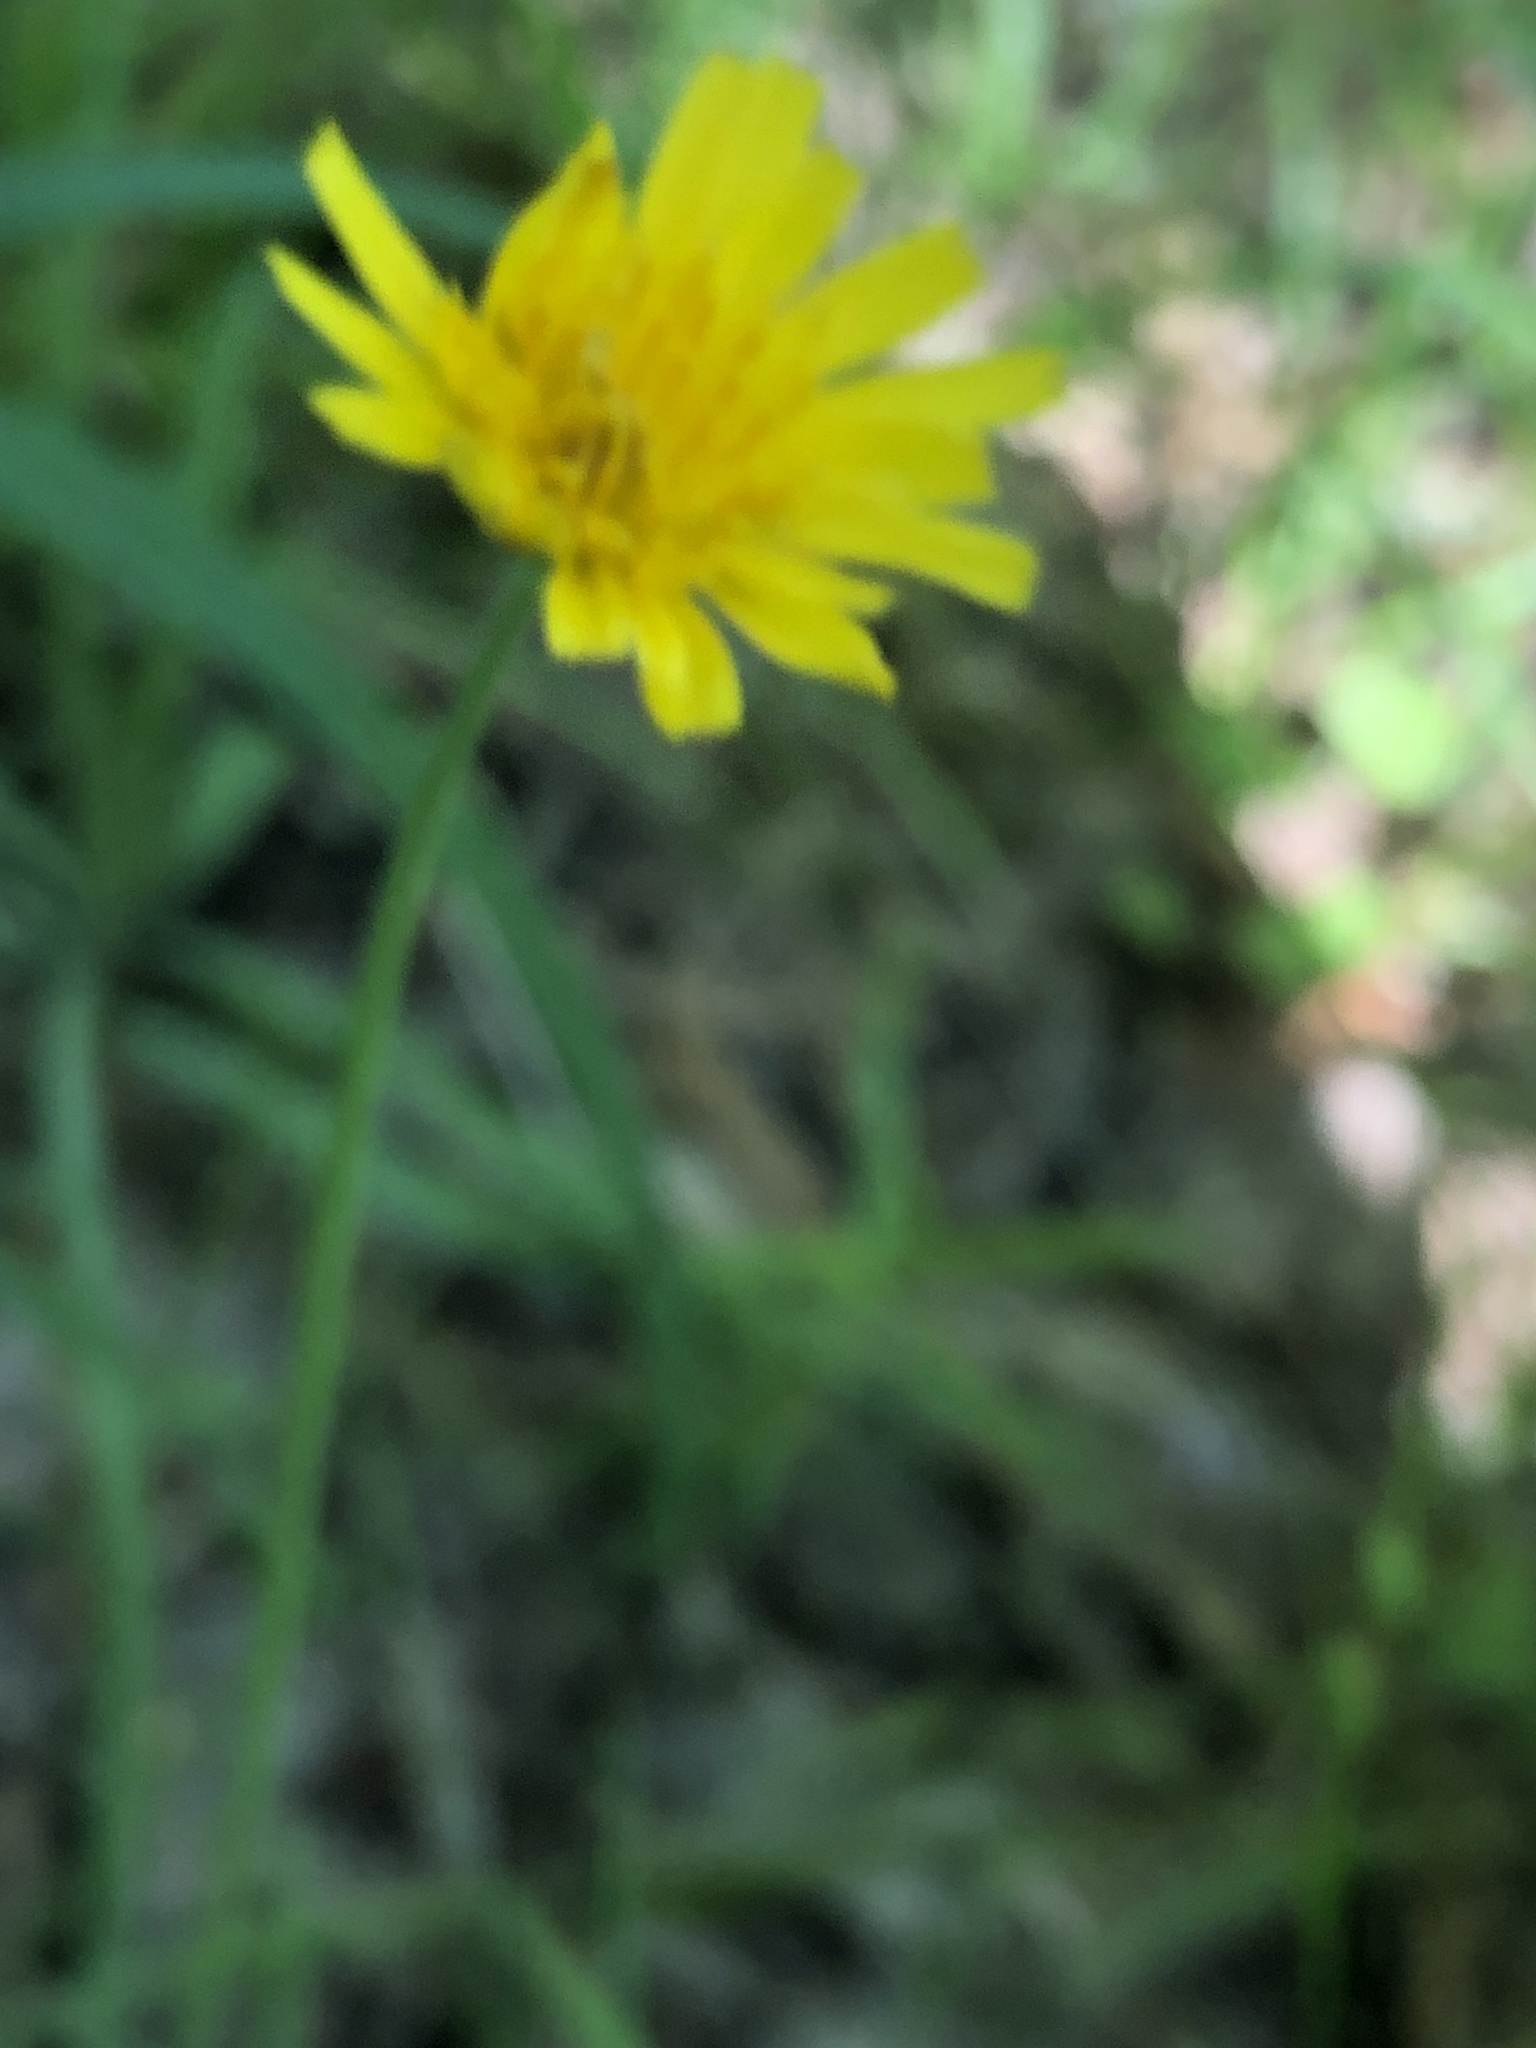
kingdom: Plantae
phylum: Tracheophyta
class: Magnoliopsida
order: Asterales
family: Asteraceae
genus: Krigia
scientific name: Krigia dandelion
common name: Colonial dwarf-dandelion
